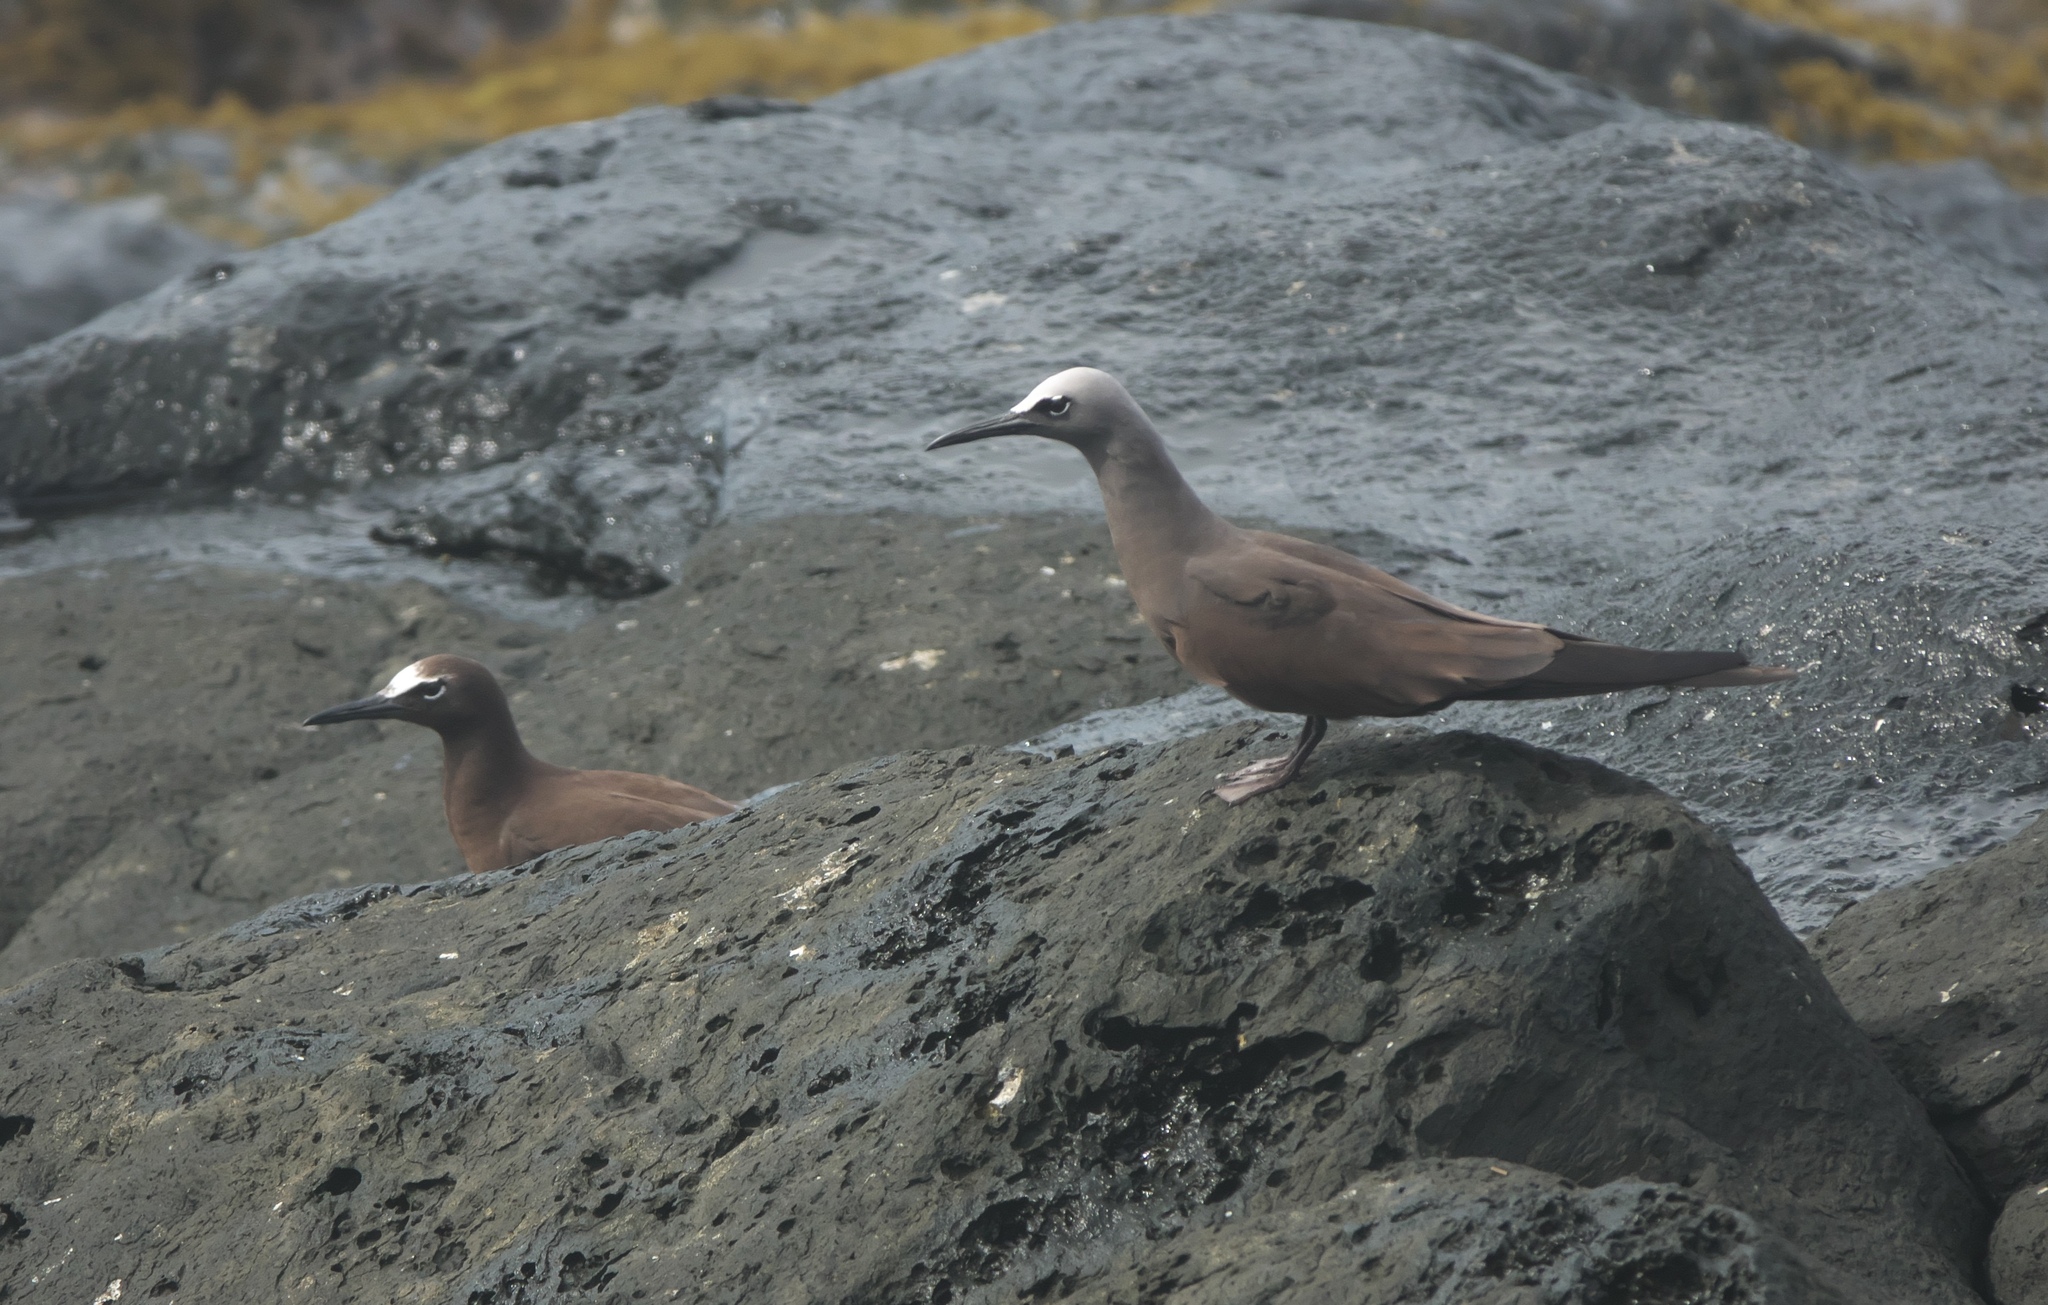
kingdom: Animalia
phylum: Chordata
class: Aves
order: Charadriiformes
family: Laridae
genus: Anous
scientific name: Anous stolidus
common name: Brown noddy
